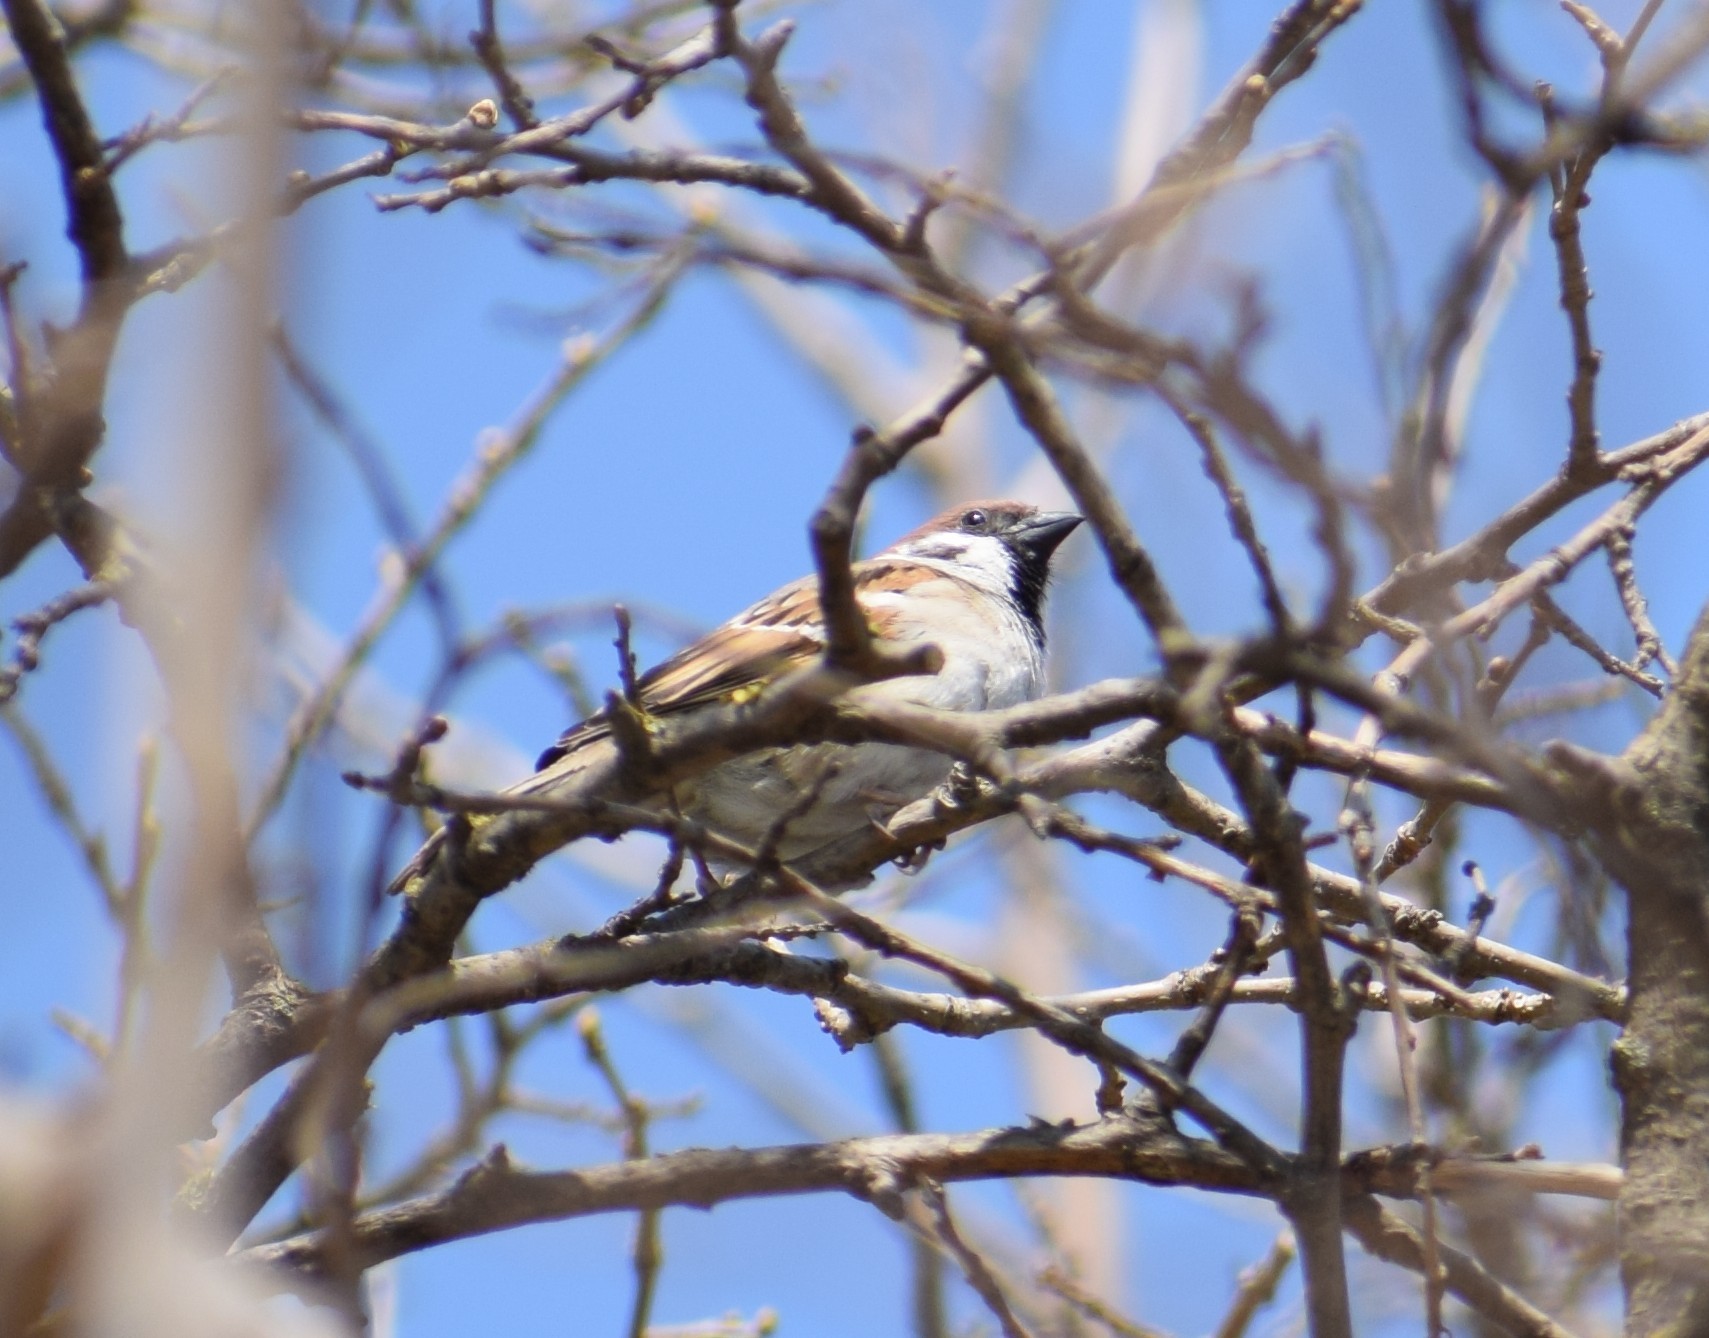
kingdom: Animalia
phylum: Chordata
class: Aves
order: Passeriformes
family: Passeridae
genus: Passer
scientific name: Passer domesticus
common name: House sparrow
